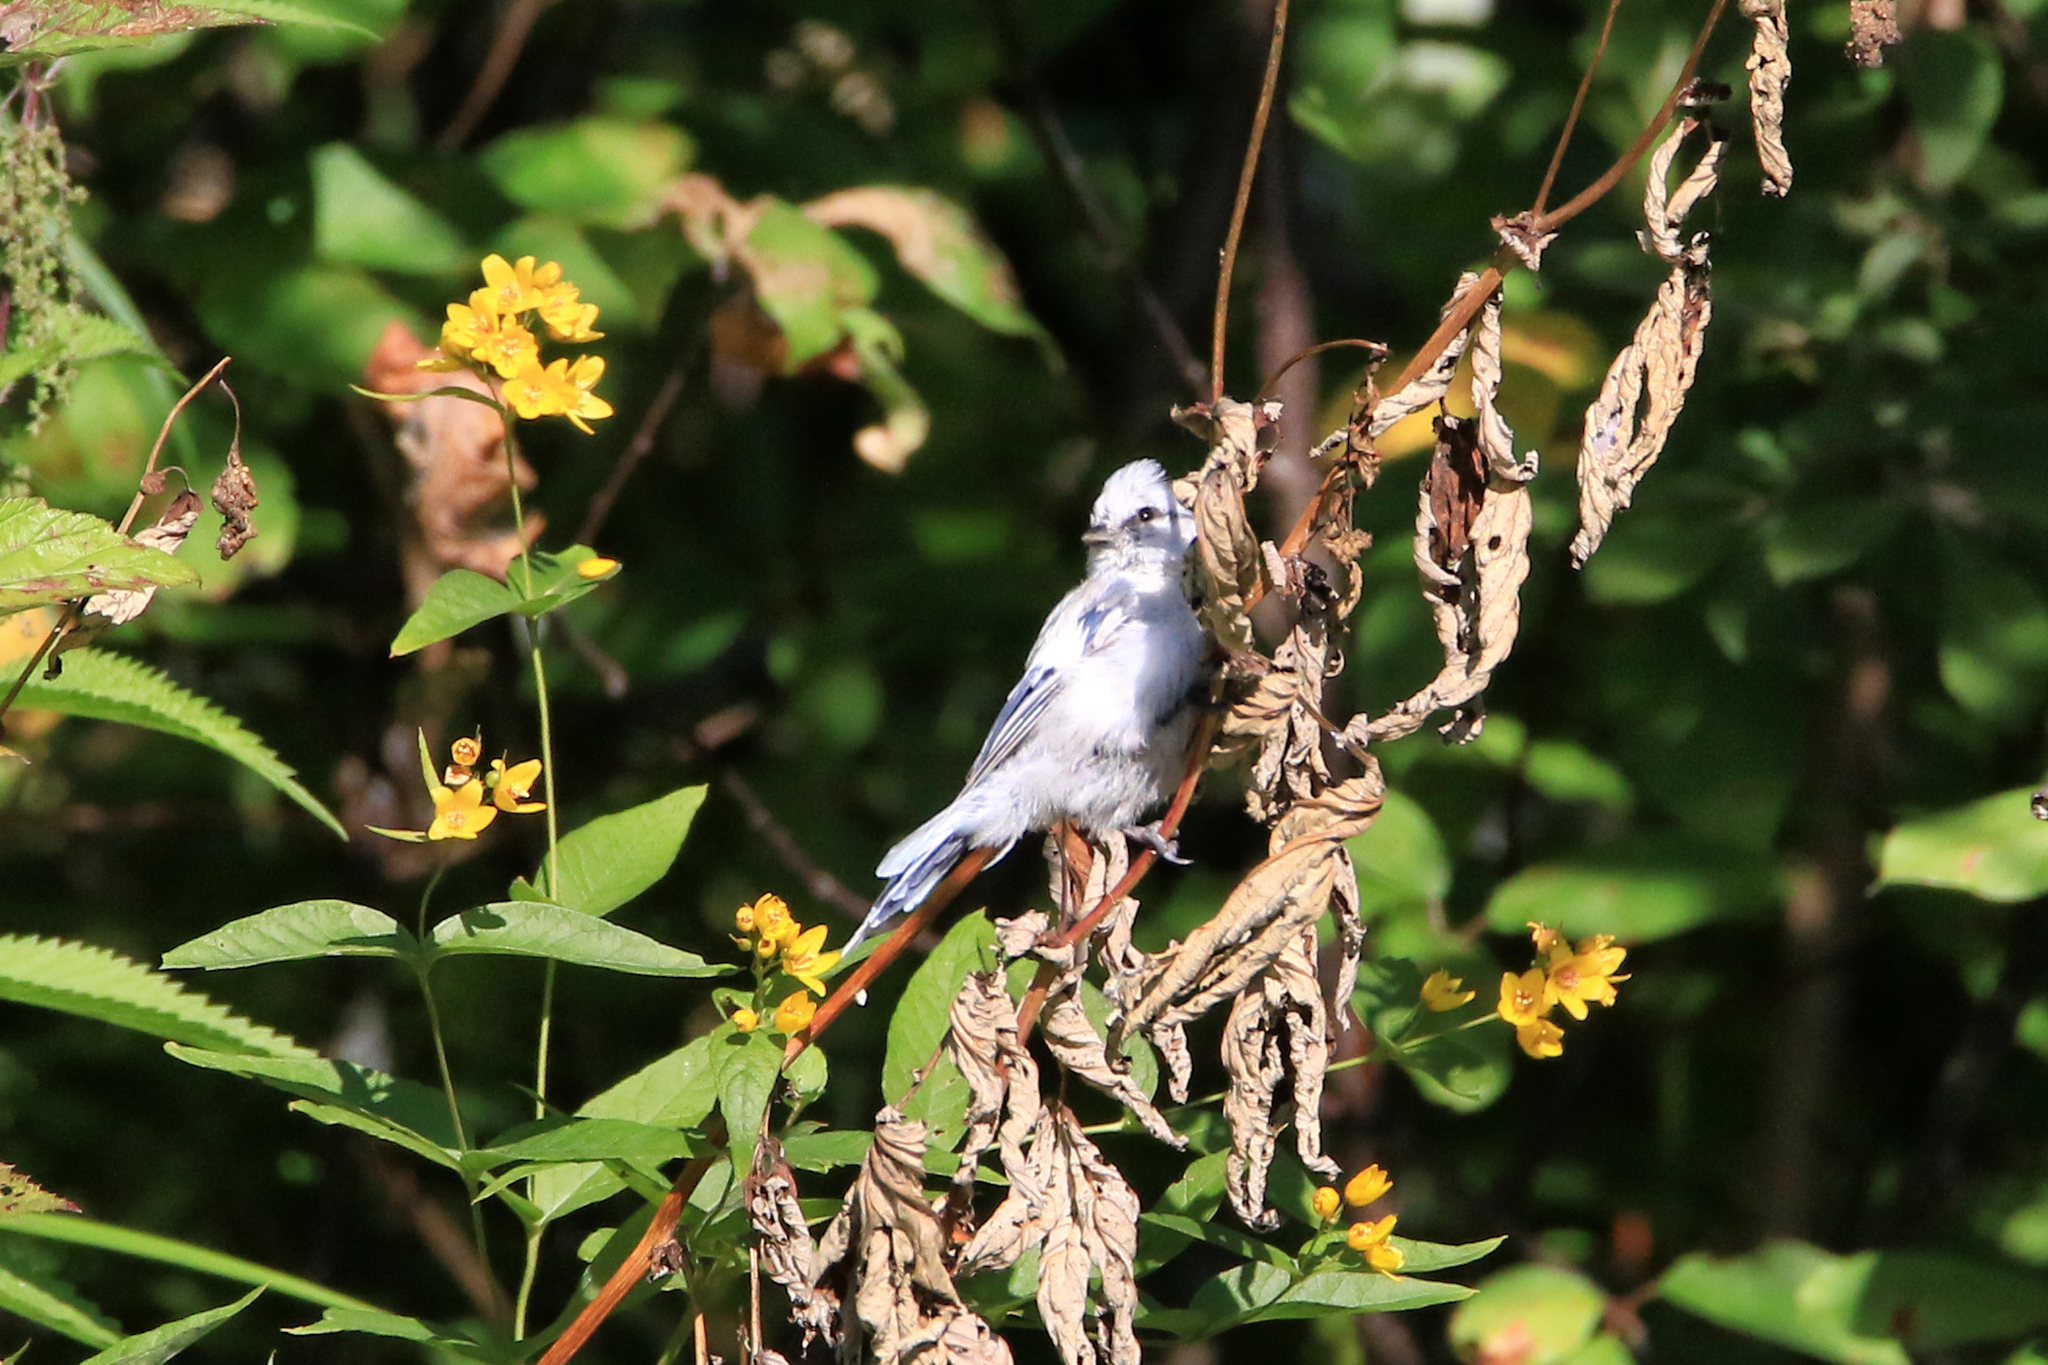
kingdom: Animalia
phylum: Chordata
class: Aves
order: Passeriformes
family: Paridae
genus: Cyanistes
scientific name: Cyanistes cyanus
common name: Azure tit
